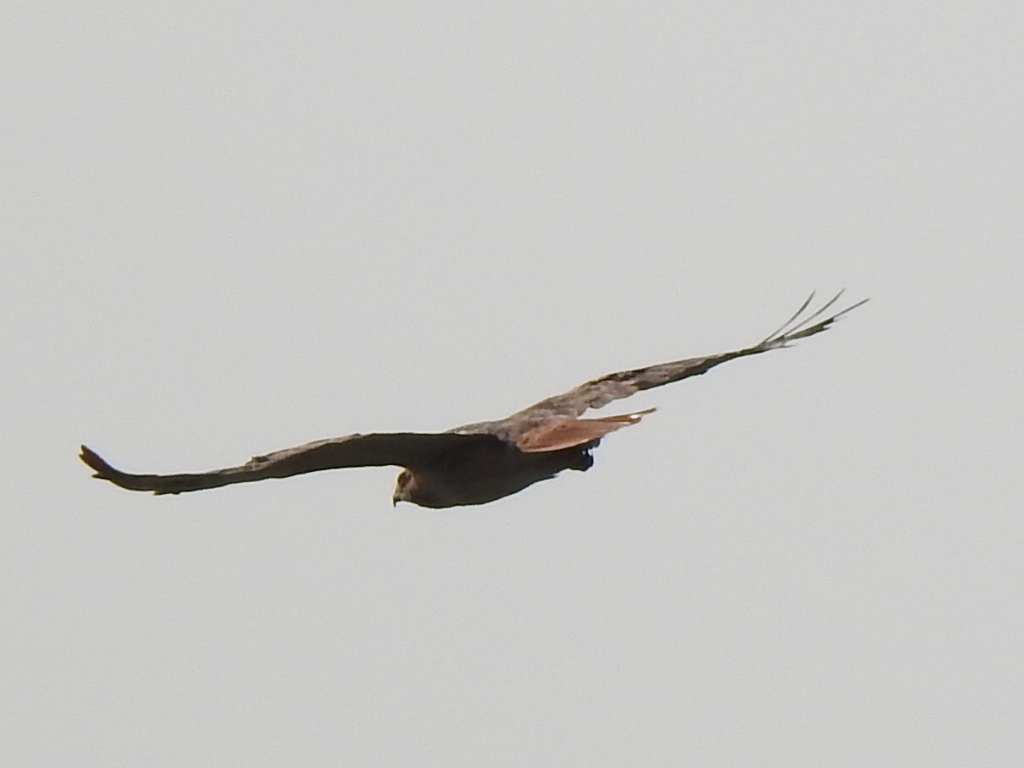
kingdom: Animalia
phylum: Chordata
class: Aves
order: Accipitriformes
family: Accipitridae
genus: Buteo
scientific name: Buteo jamaicensis
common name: Red-tailed hawk
